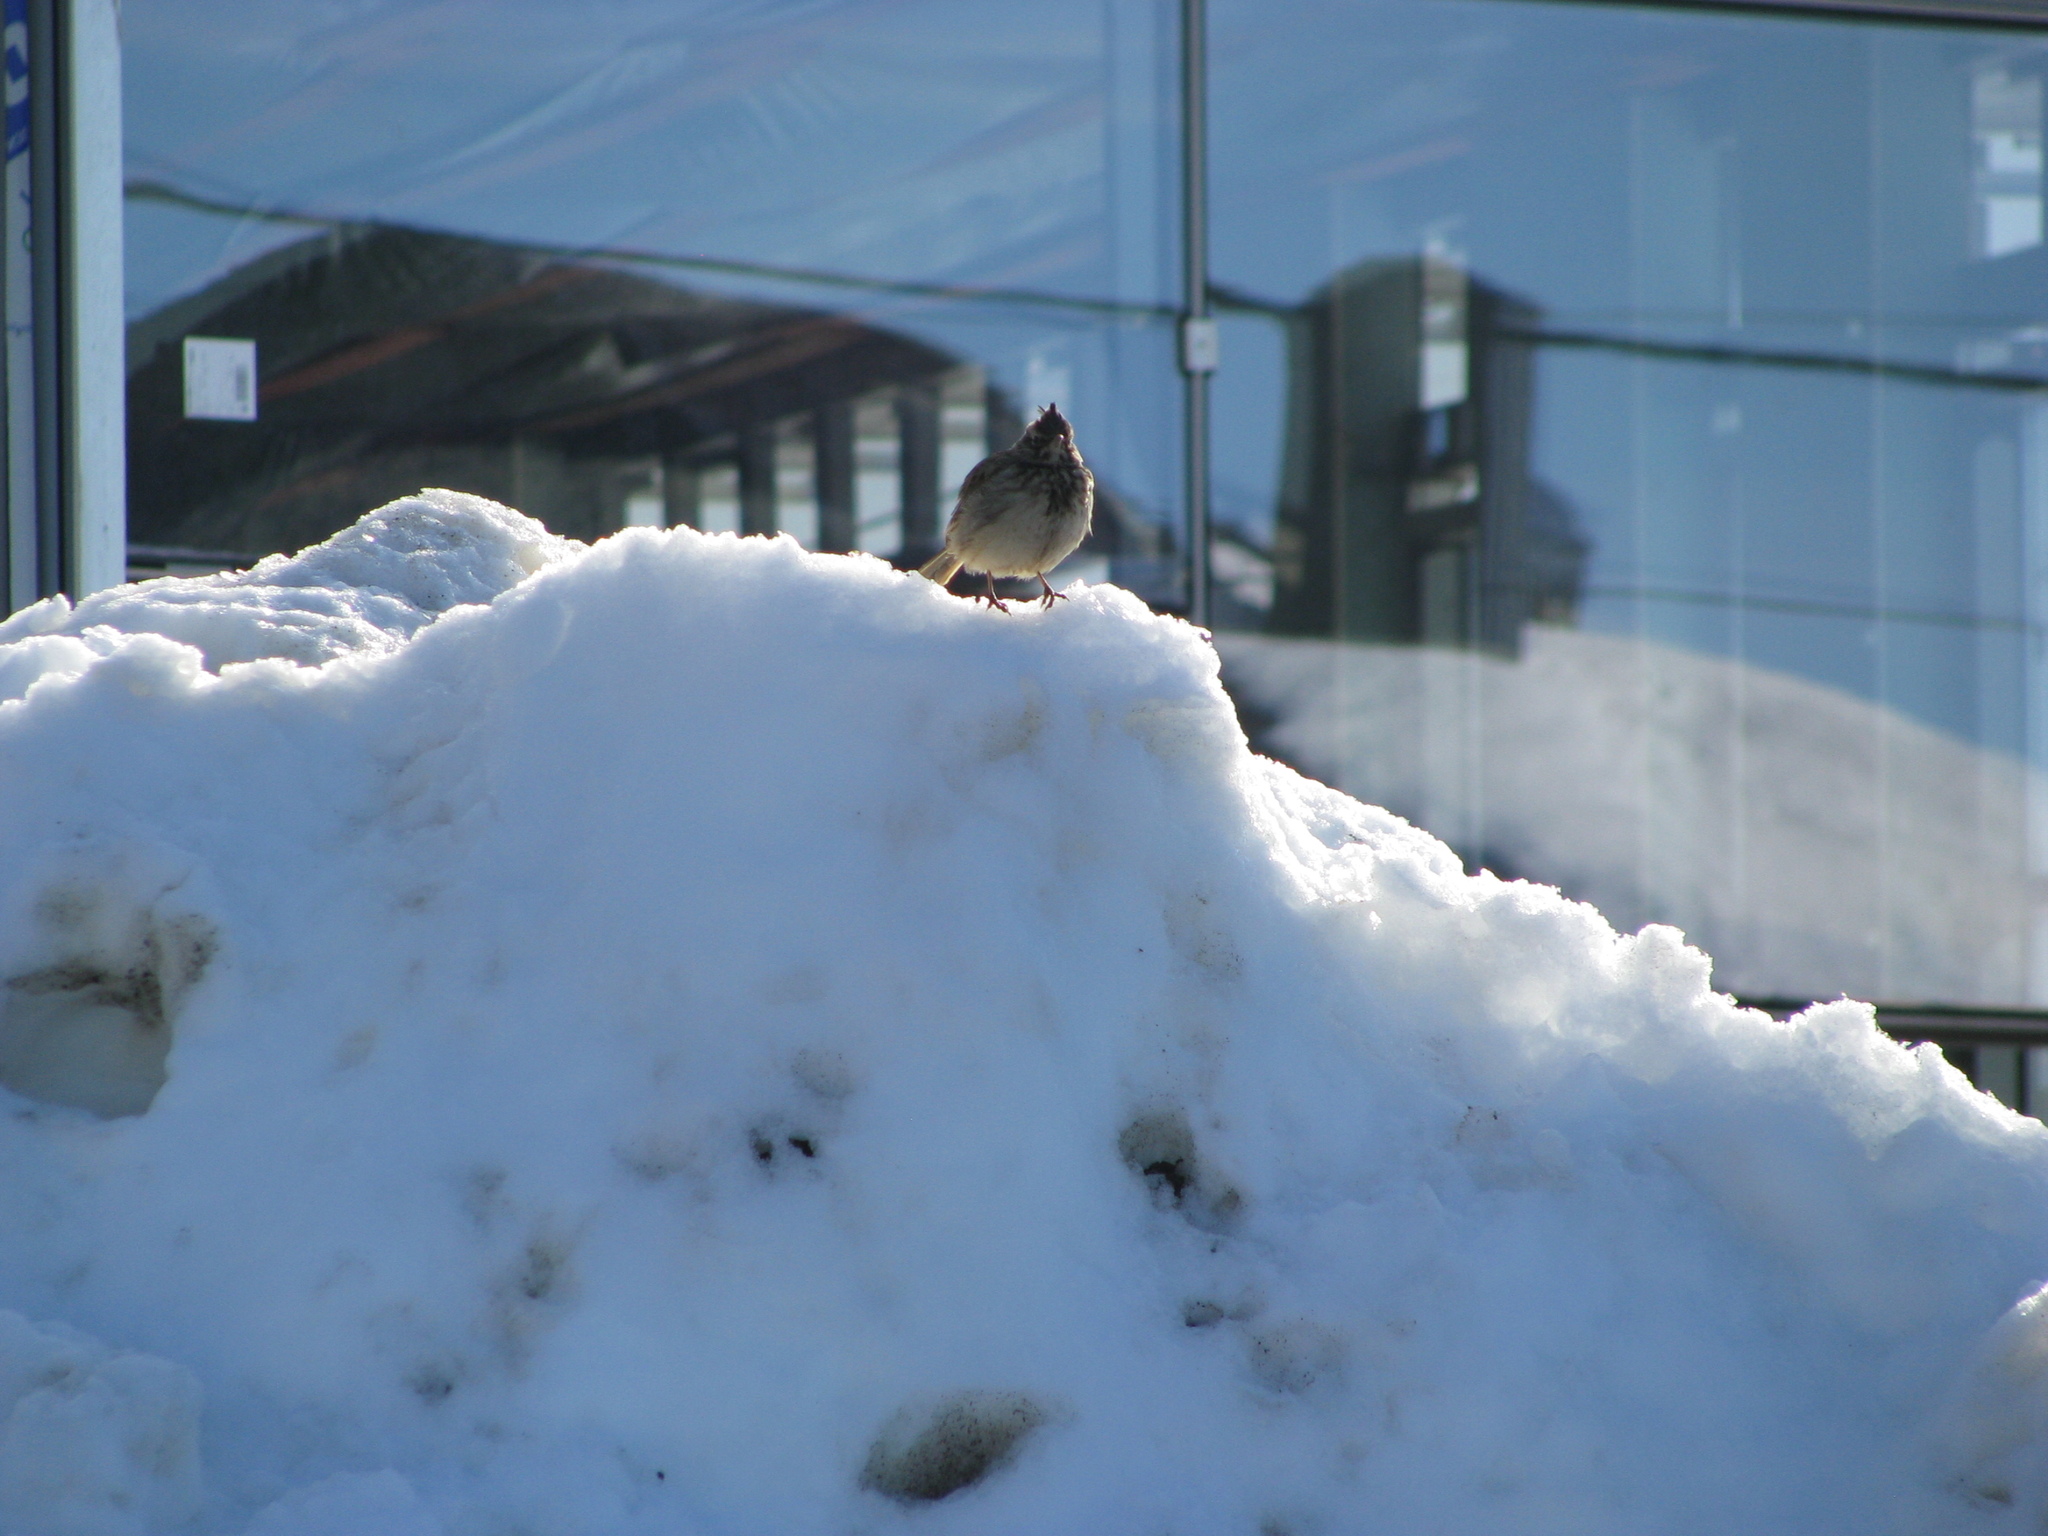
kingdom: Animalia
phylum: Chordata
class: Aves
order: Passeriformes
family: Alaudidae
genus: Galerida
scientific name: Galerida cristata
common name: Crested lark
